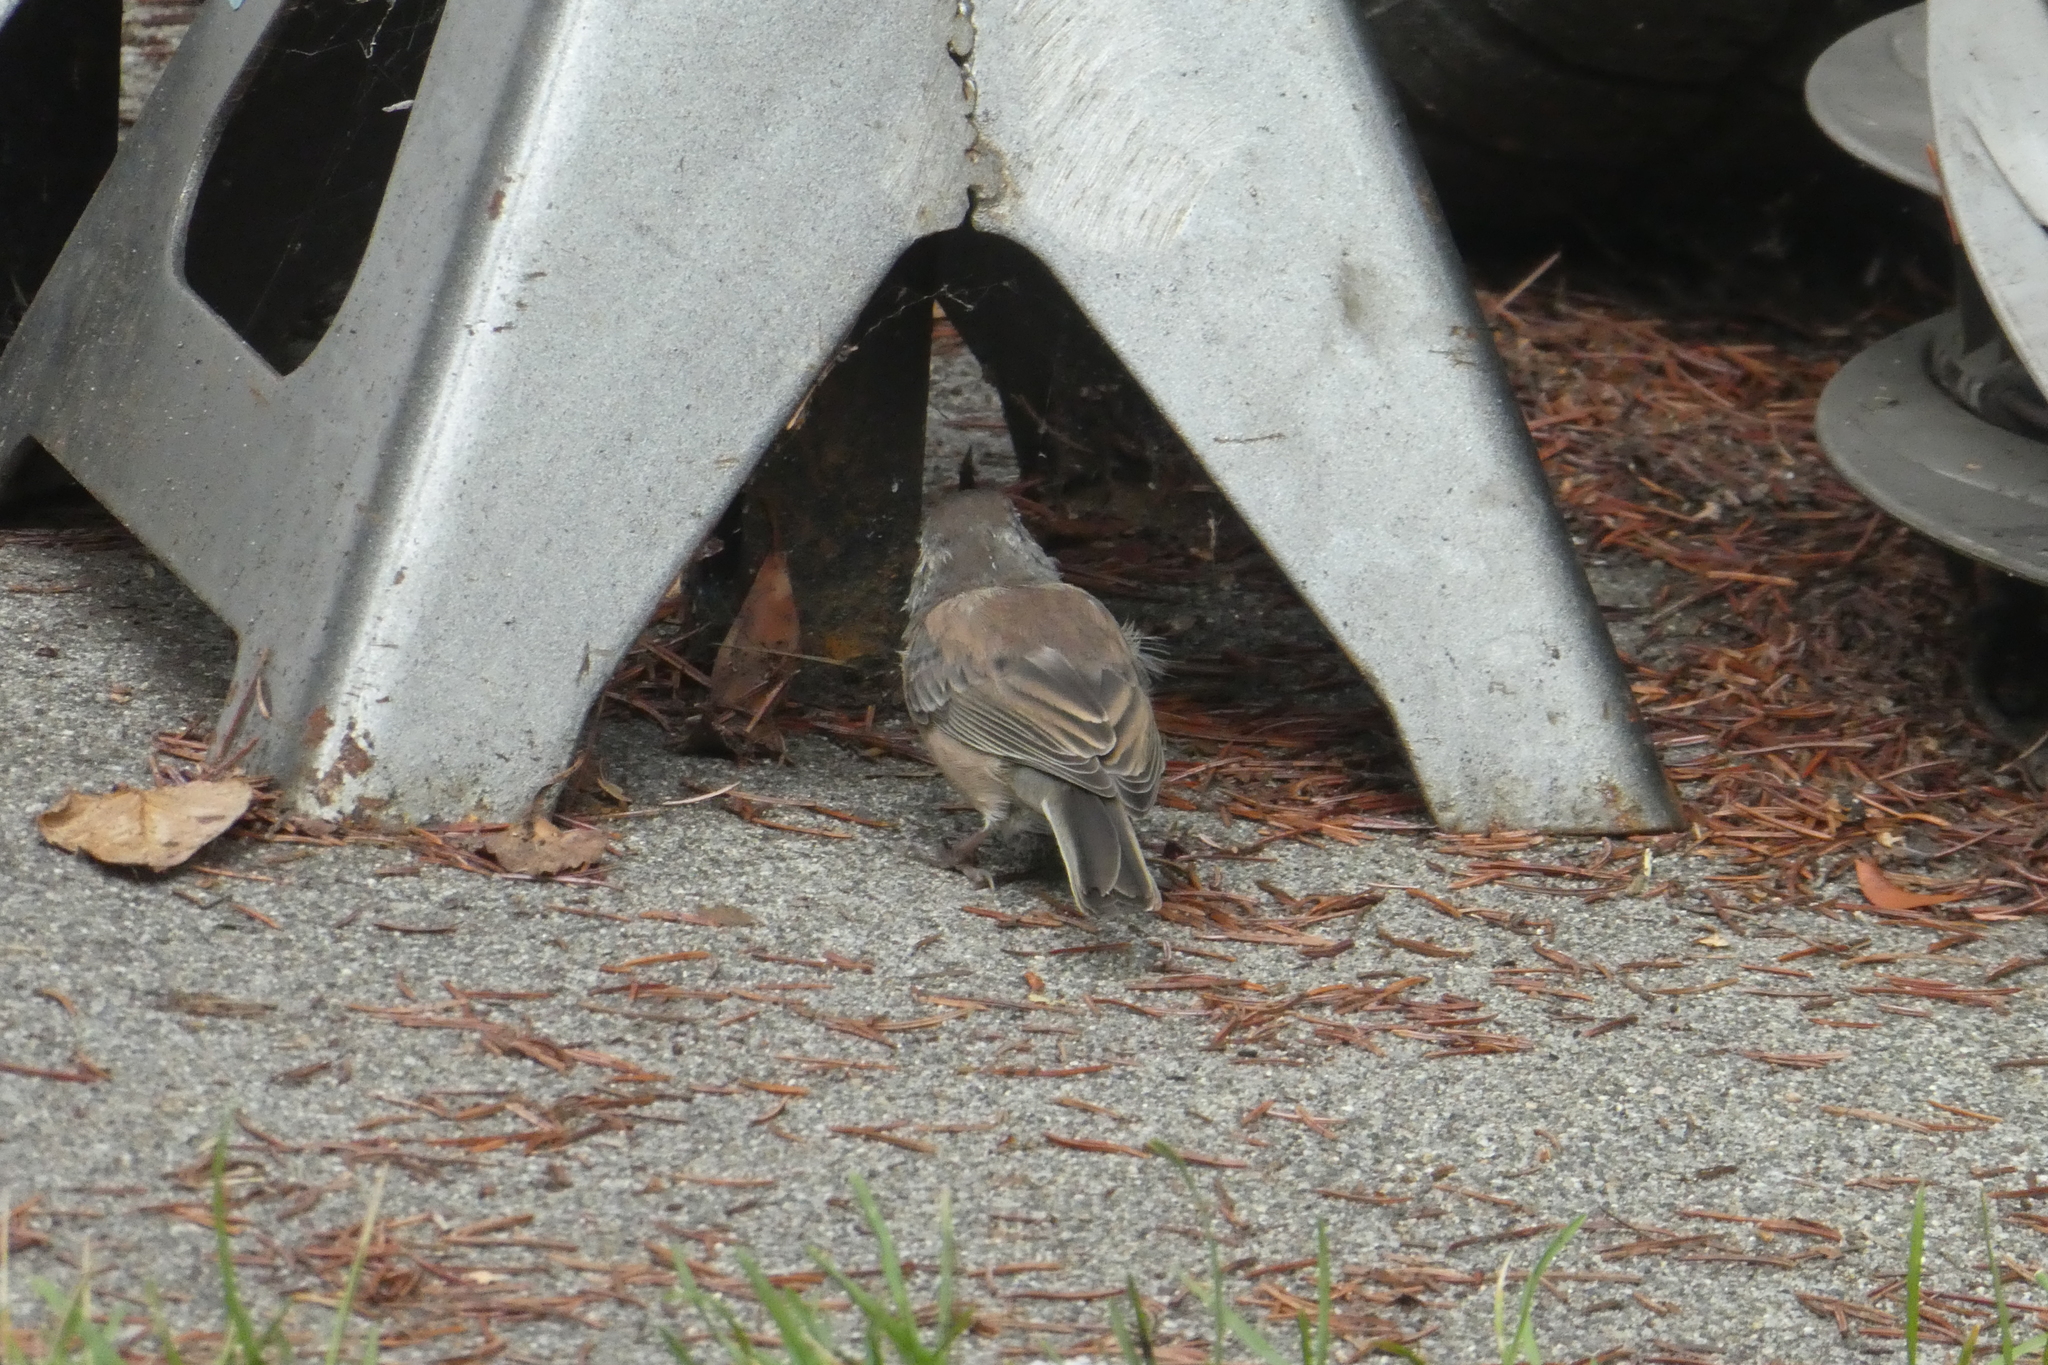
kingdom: Animalia
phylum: Chordata
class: Aves
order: Passeriformes
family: Passerellidae
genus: Junco
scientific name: Junco hyemalis
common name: Dark-eyed junco
